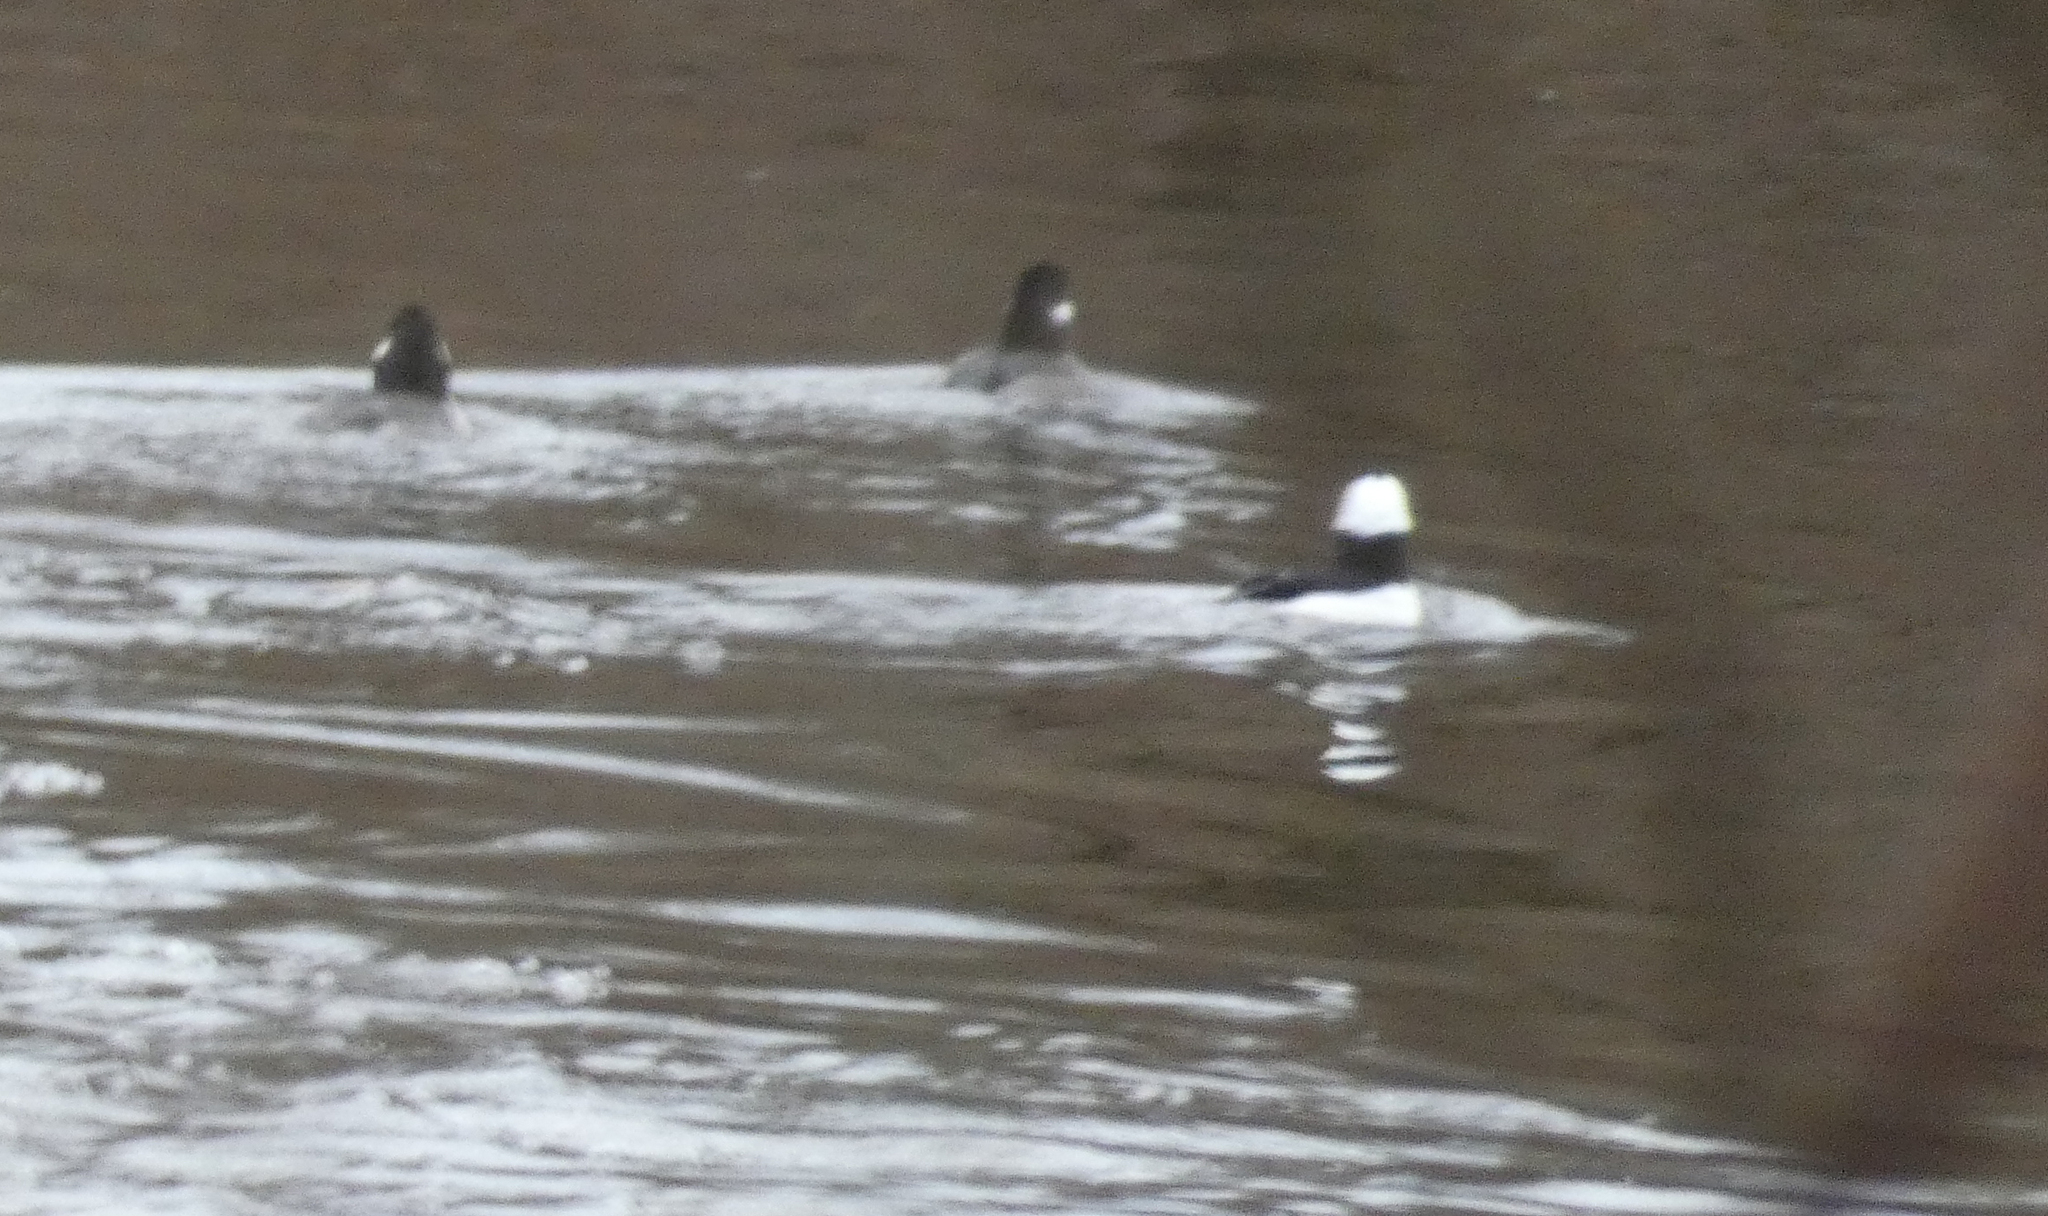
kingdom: Animalia
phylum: Chordata
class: Aves
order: Anseriformes
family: Anatidae
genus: Bucephala
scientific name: Bucephala albeola
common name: Bufflehead
